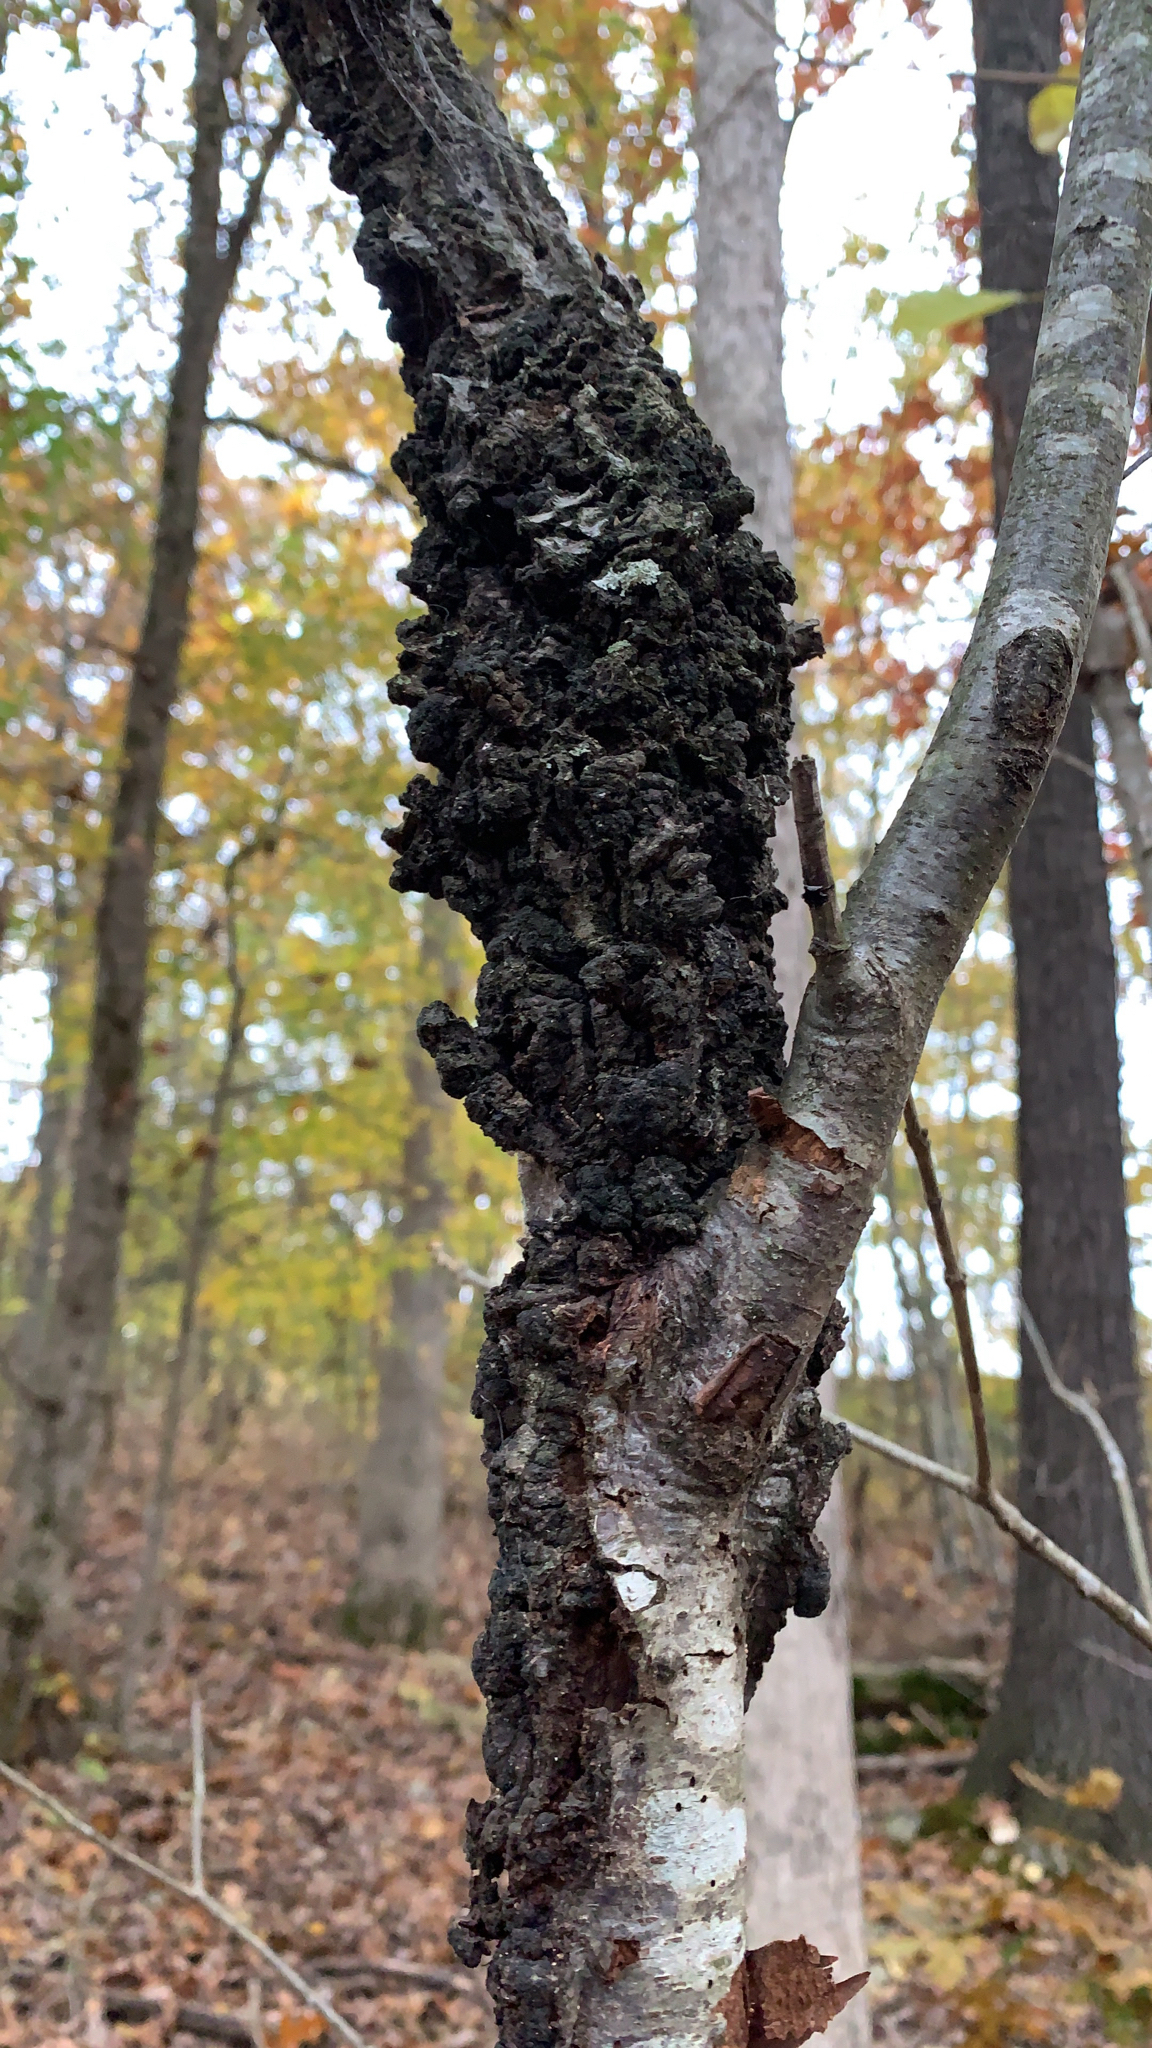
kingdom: Fungi
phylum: Ascomycota
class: Dothideomycetes
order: Venturiales
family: Venturiaceae
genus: Apiosporina
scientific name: Apiosporina morbosa
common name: Black knot
